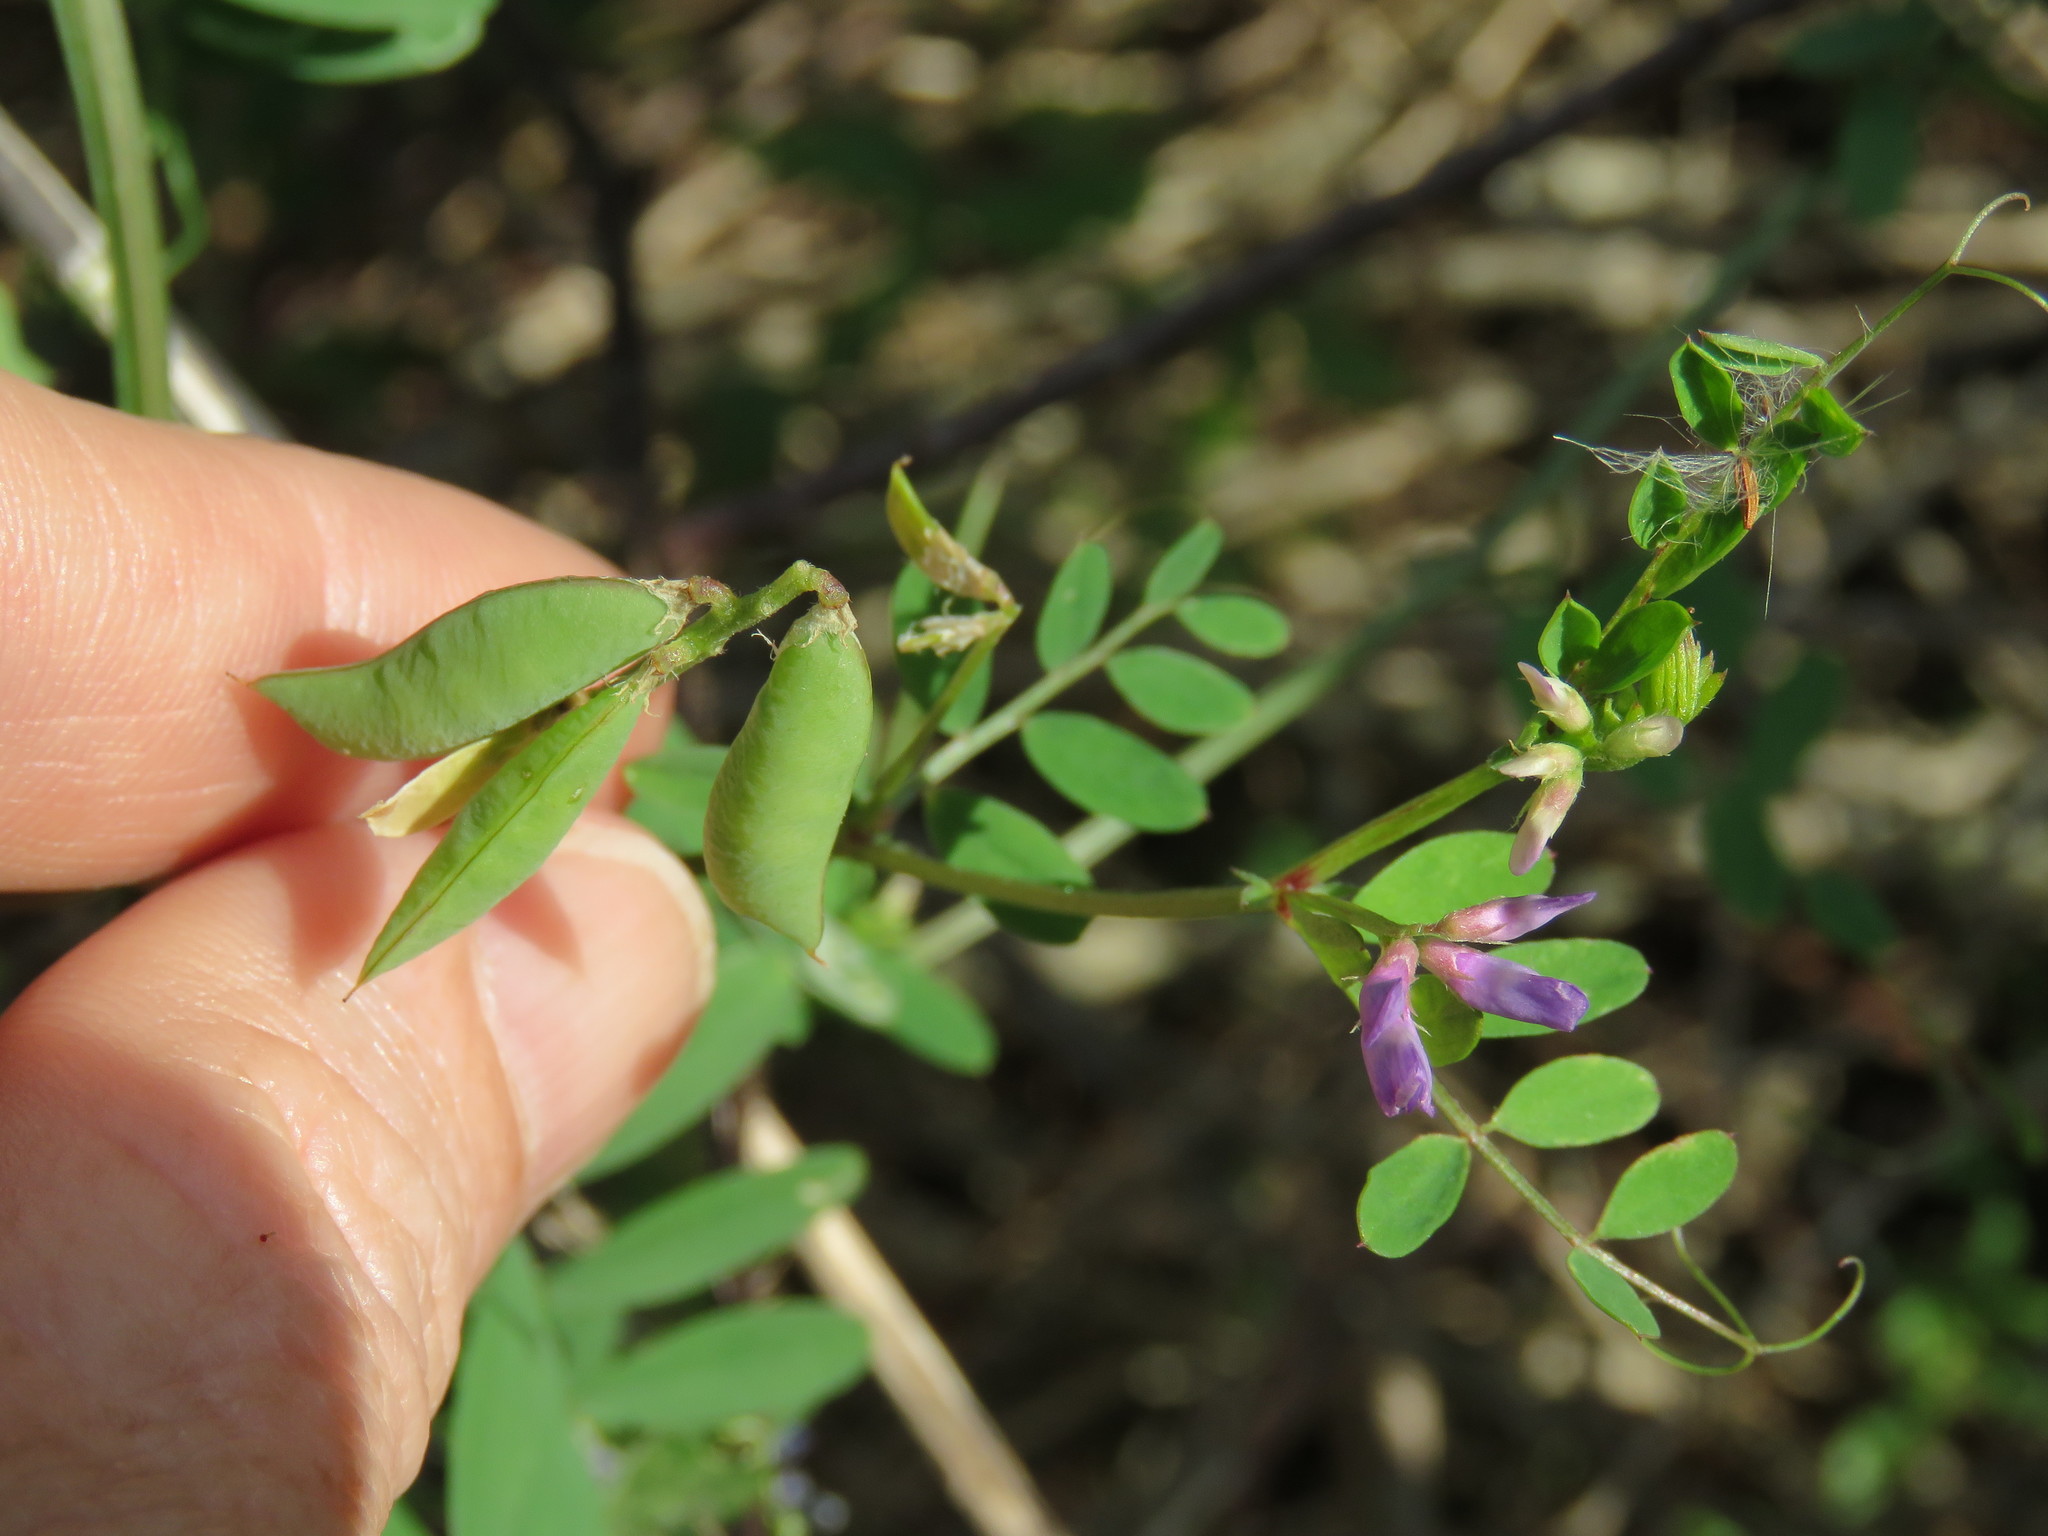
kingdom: Plantae
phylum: Tracheophyta
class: Magnoliopsida
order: Fabales
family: Fabaceae
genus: Vicia
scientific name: Vicia ludoviciana
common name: Louisiana vetch
